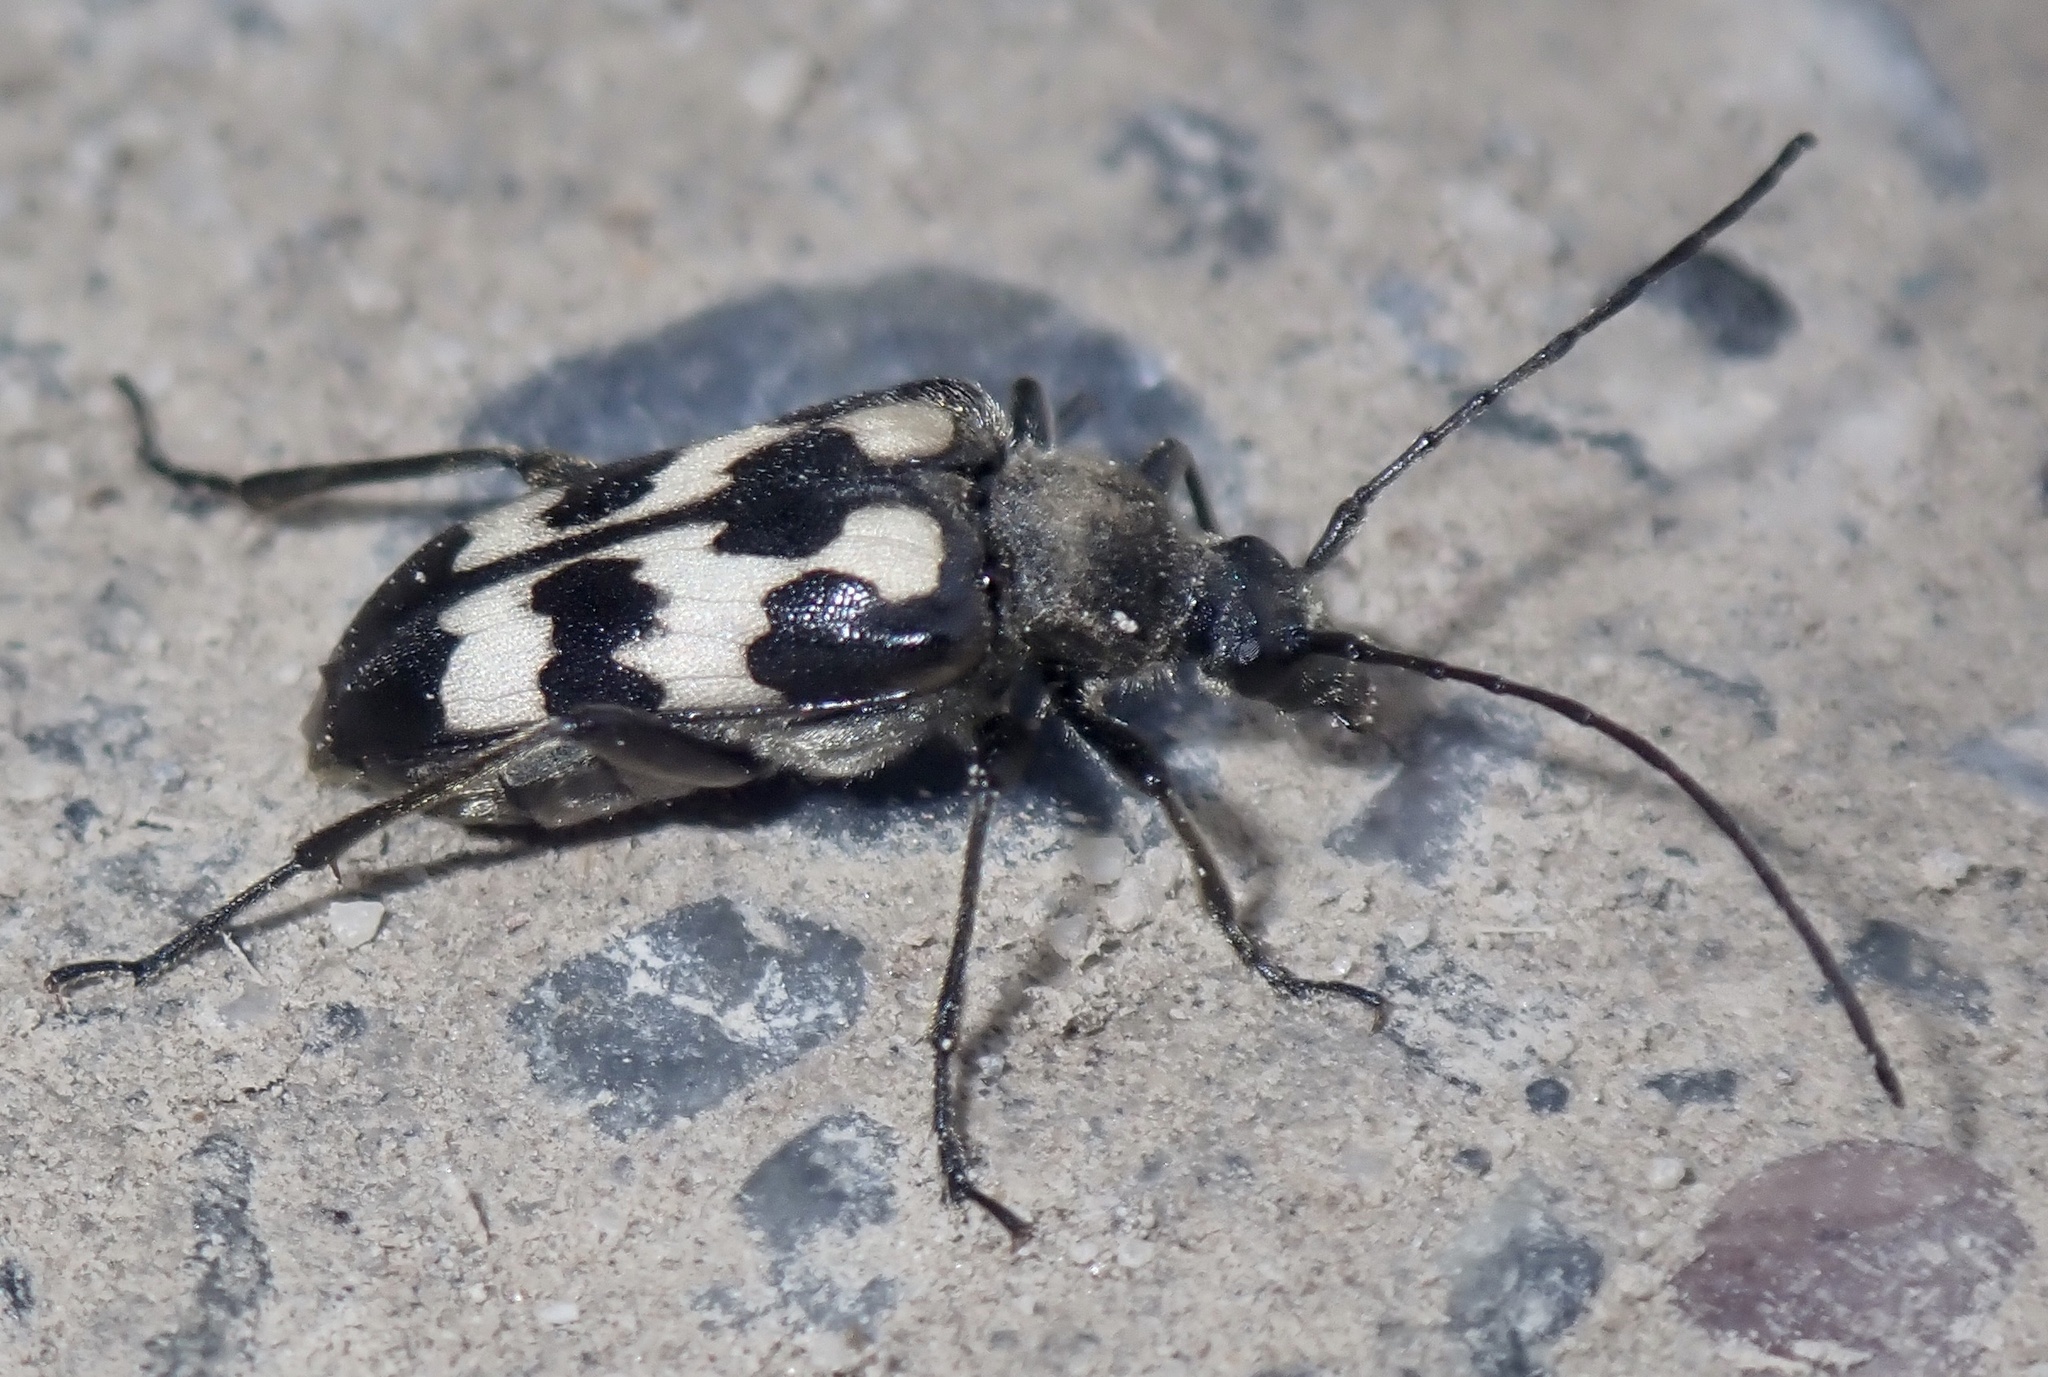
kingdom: Animalia
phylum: Arthropoda
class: Insecta
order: Coleoptera
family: Cerambycidae
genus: Judolia
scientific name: Judolia montivagans
